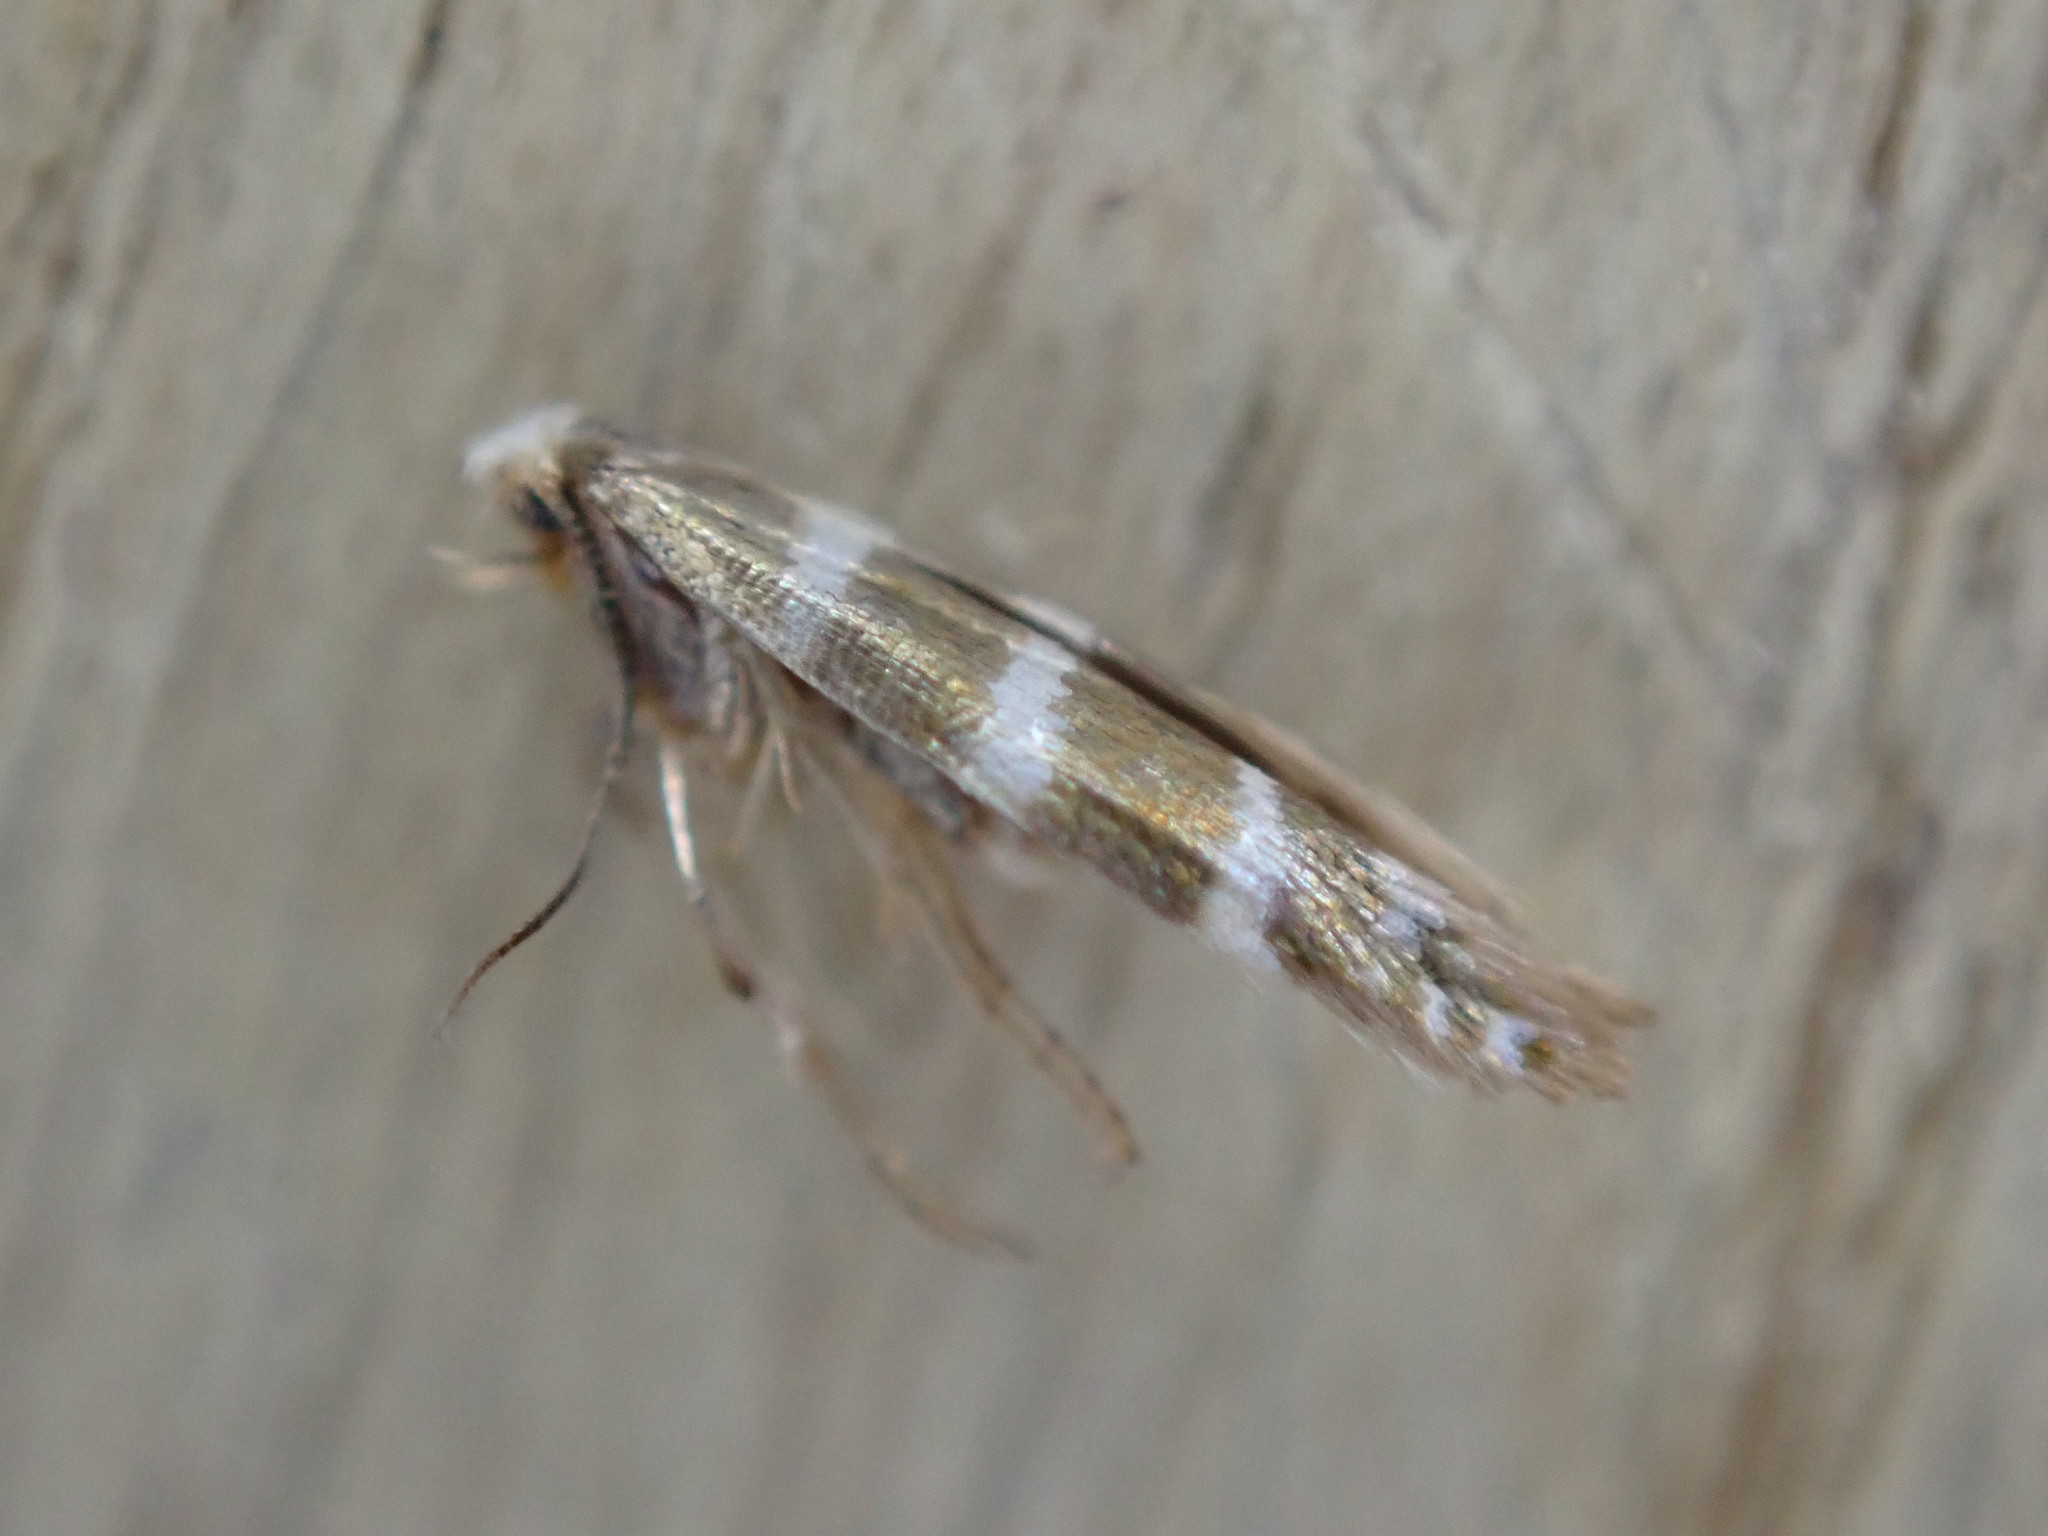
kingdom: Animalia
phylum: Arthropoda
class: Insecta
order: Lepidoptera
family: Argyresthiidae
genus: Argyresthia
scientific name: Argyresthia trifasciata
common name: Triple-barred argent
